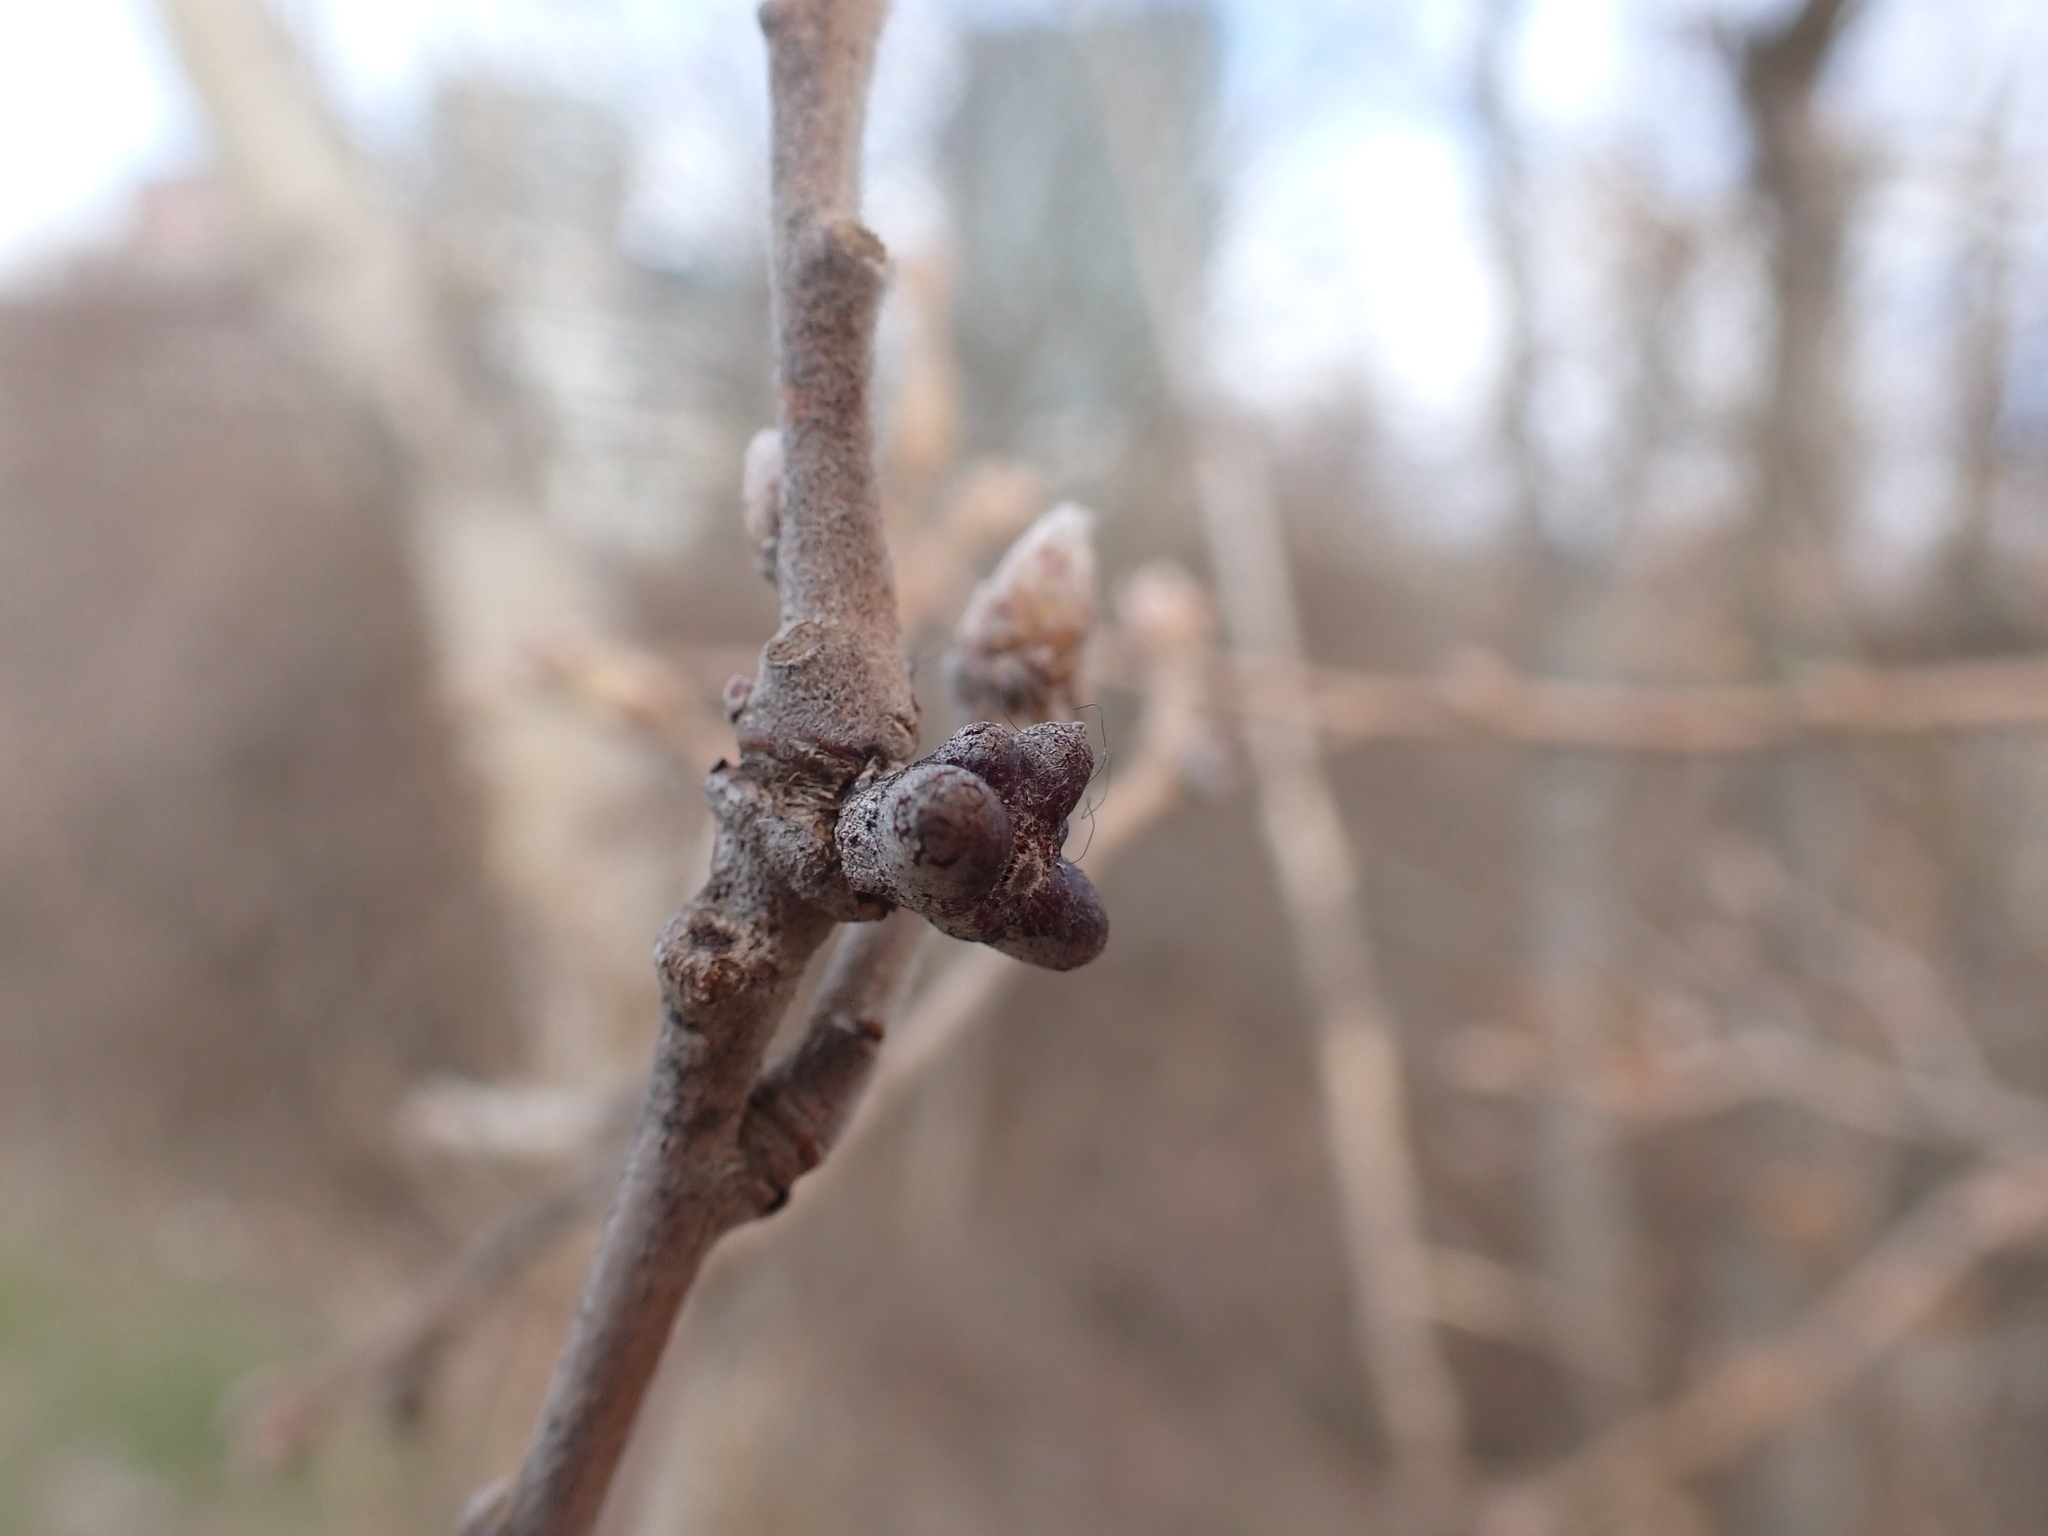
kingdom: Animalia
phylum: Arthropoda
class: Insecta
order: Hymenoptera
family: Cynipidae
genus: Andricus
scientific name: Andricus amblycerus
